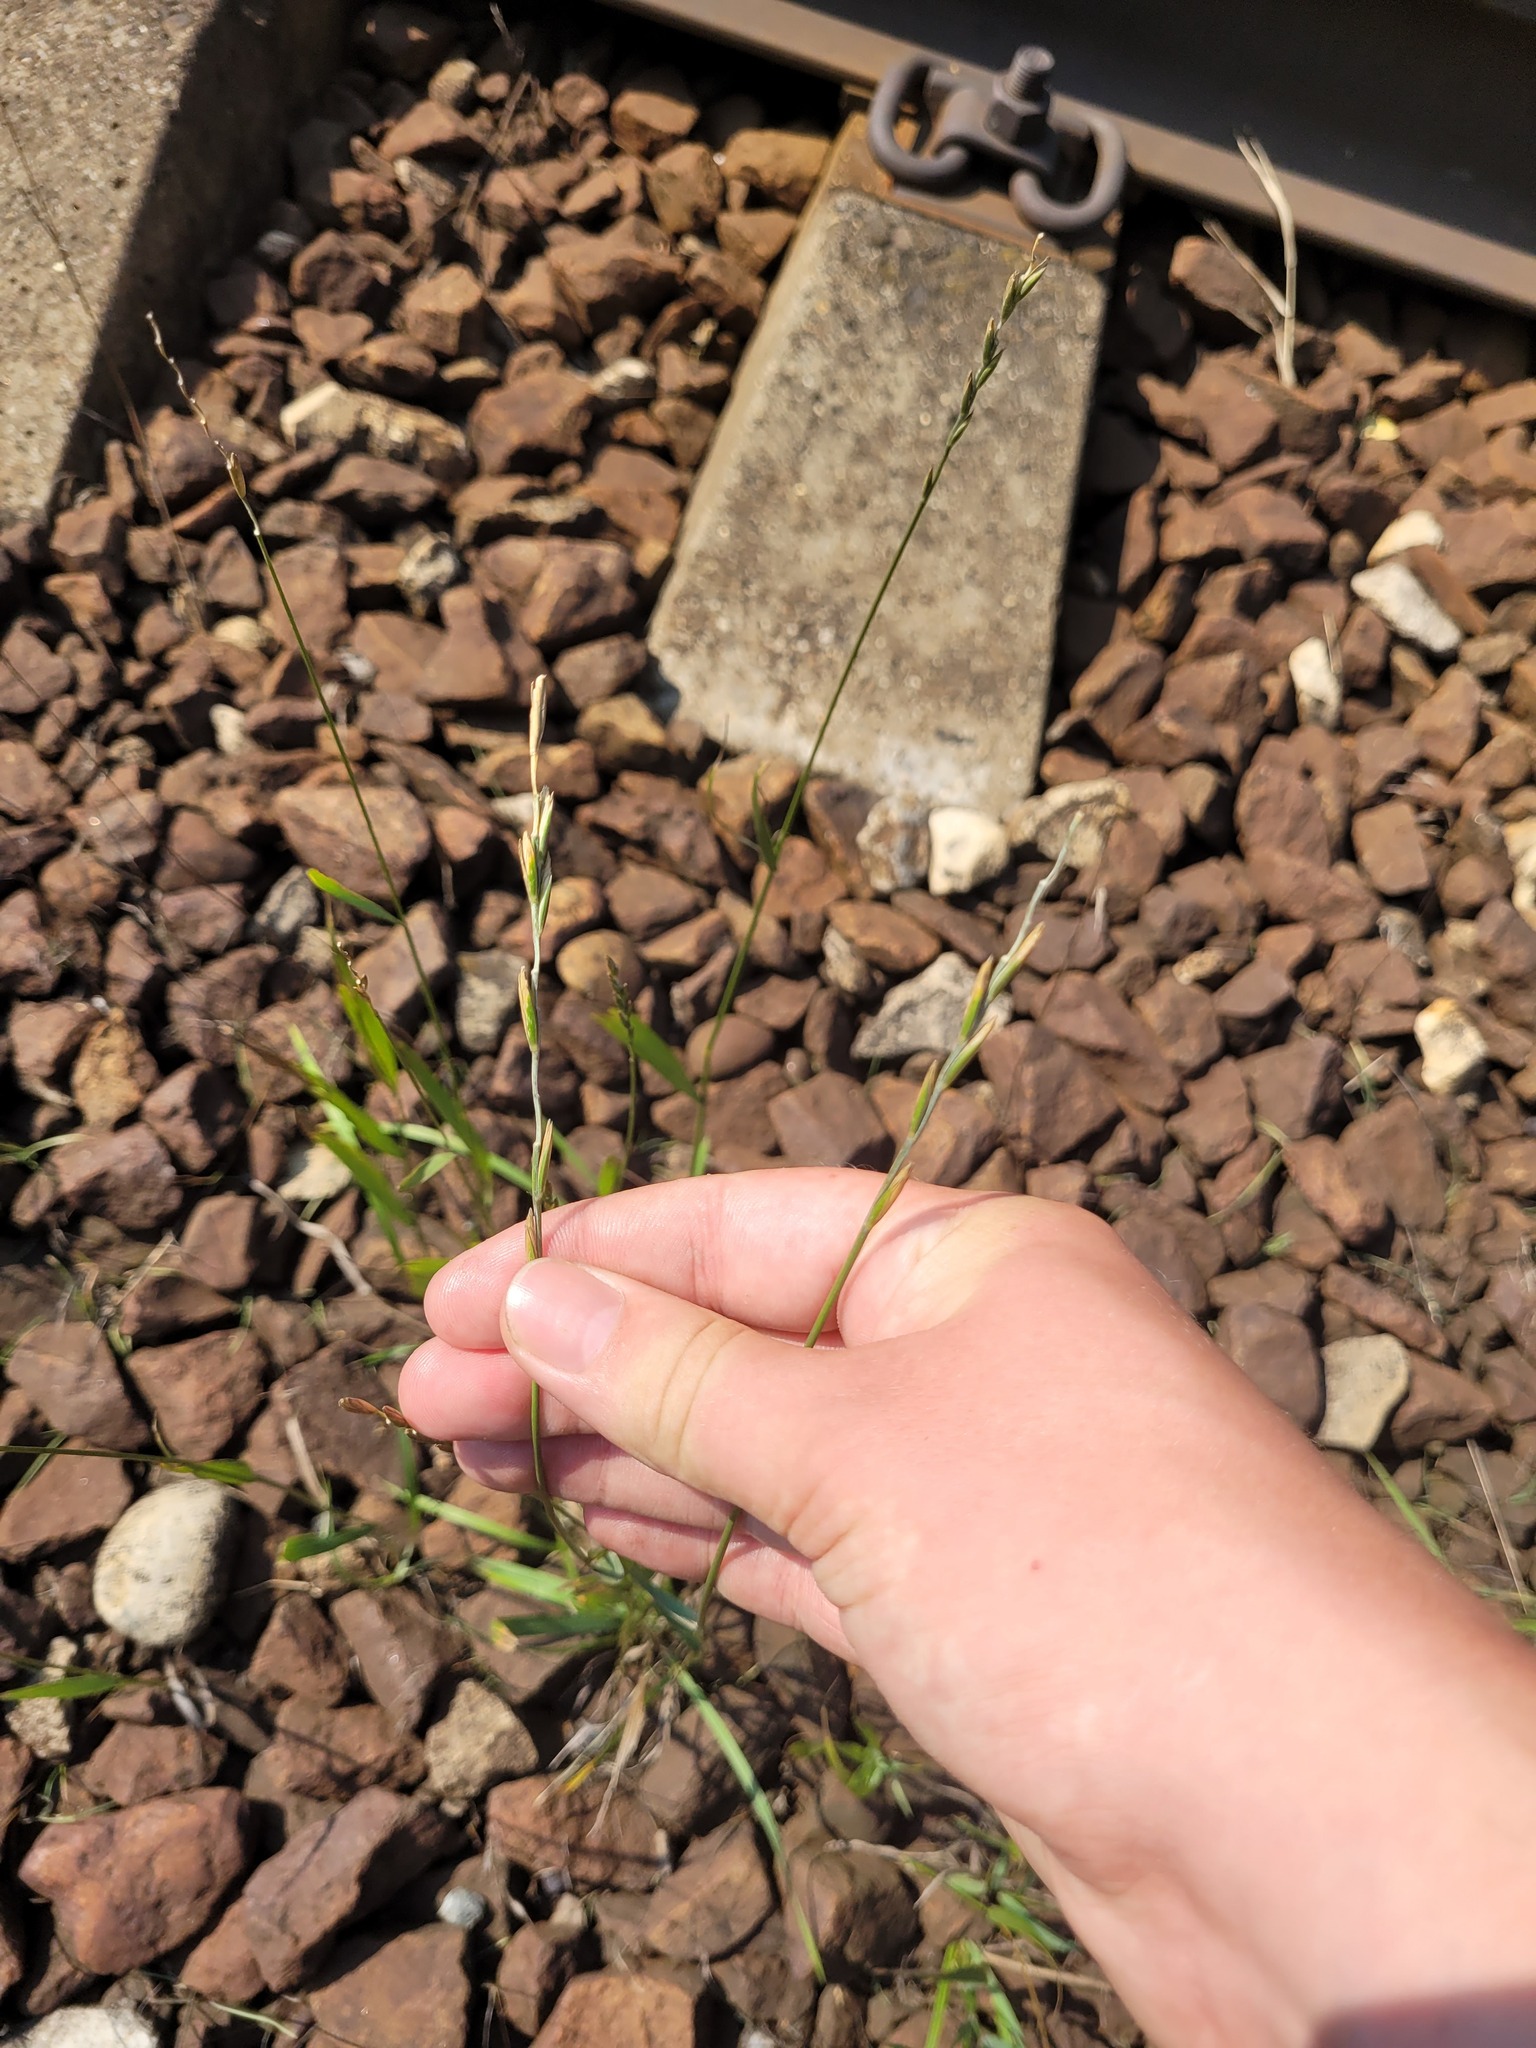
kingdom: Plantae
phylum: Tracheophyta
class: Liliopsida
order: Poales
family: Poaceae
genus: Elymus
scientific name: Elymus repens
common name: Quackgrass
